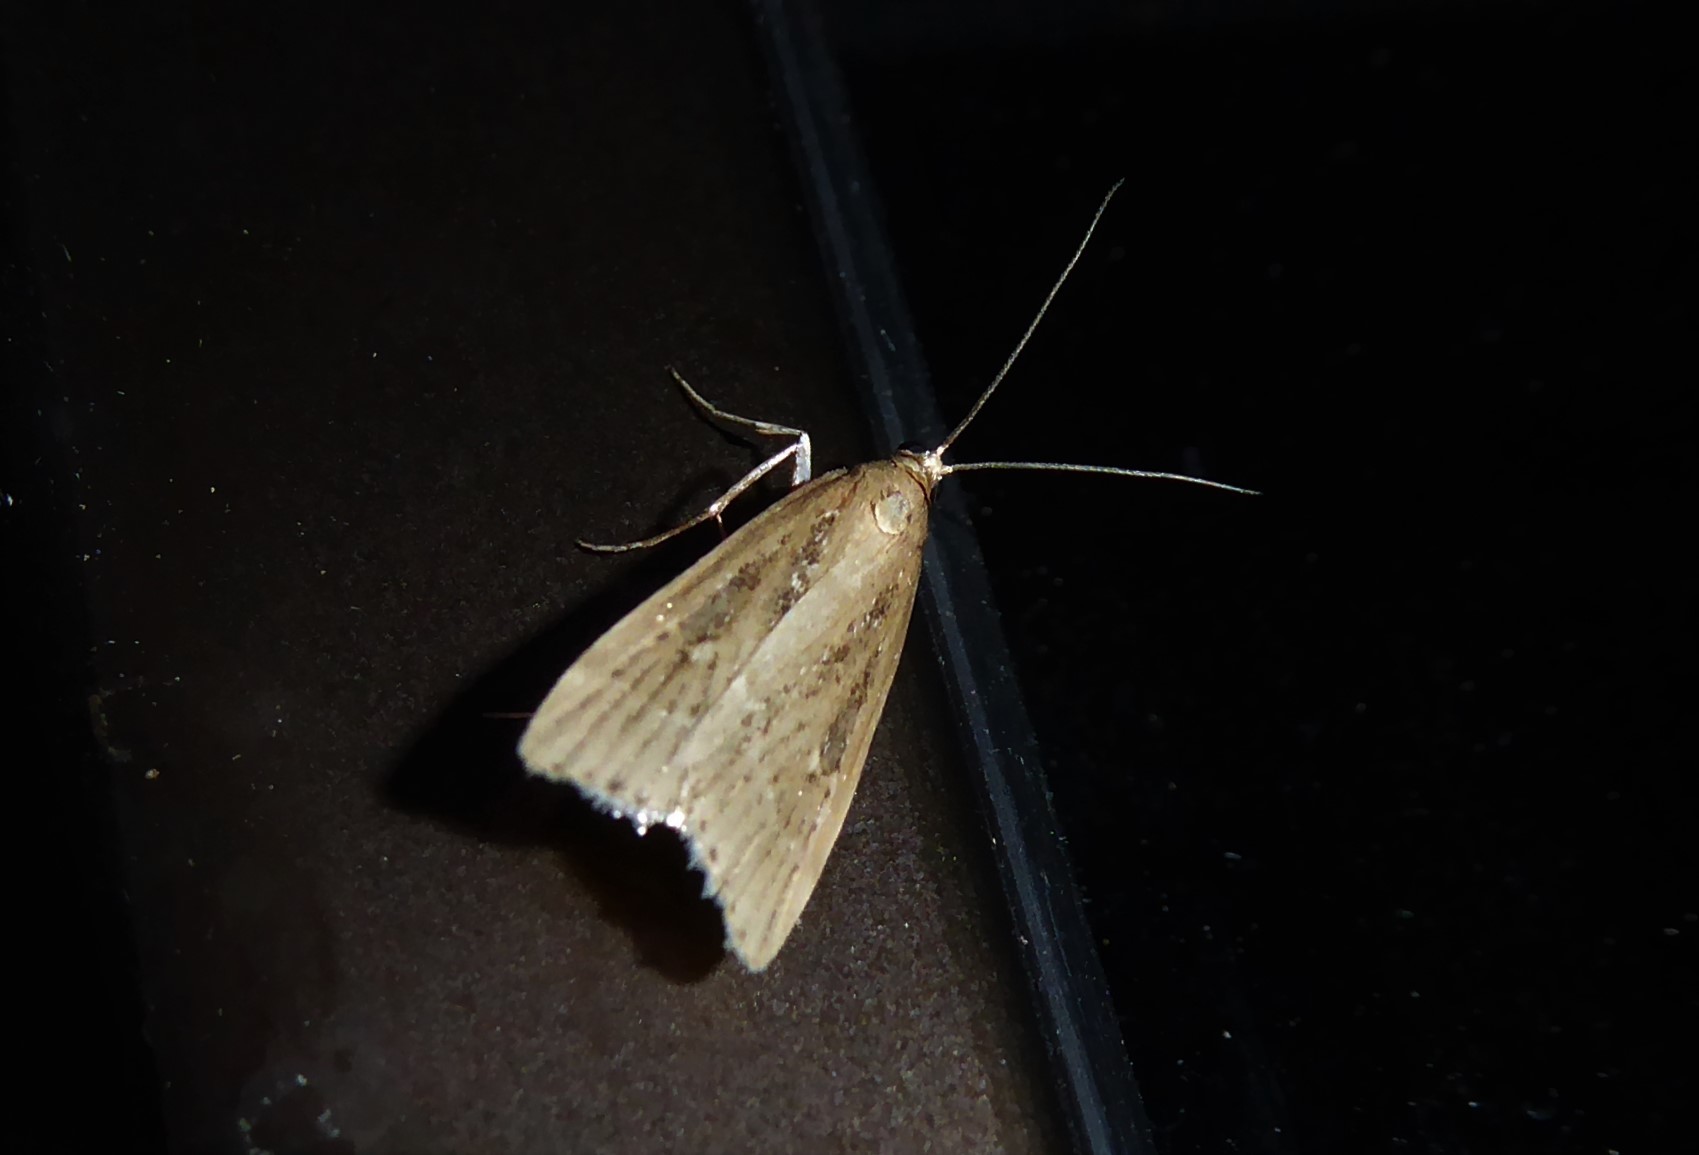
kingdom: Animalia
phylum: Arthropoda
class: Insecta
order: Lepidoptera
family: Crambidae
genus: Eudonia
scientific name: Eudonia octophora
